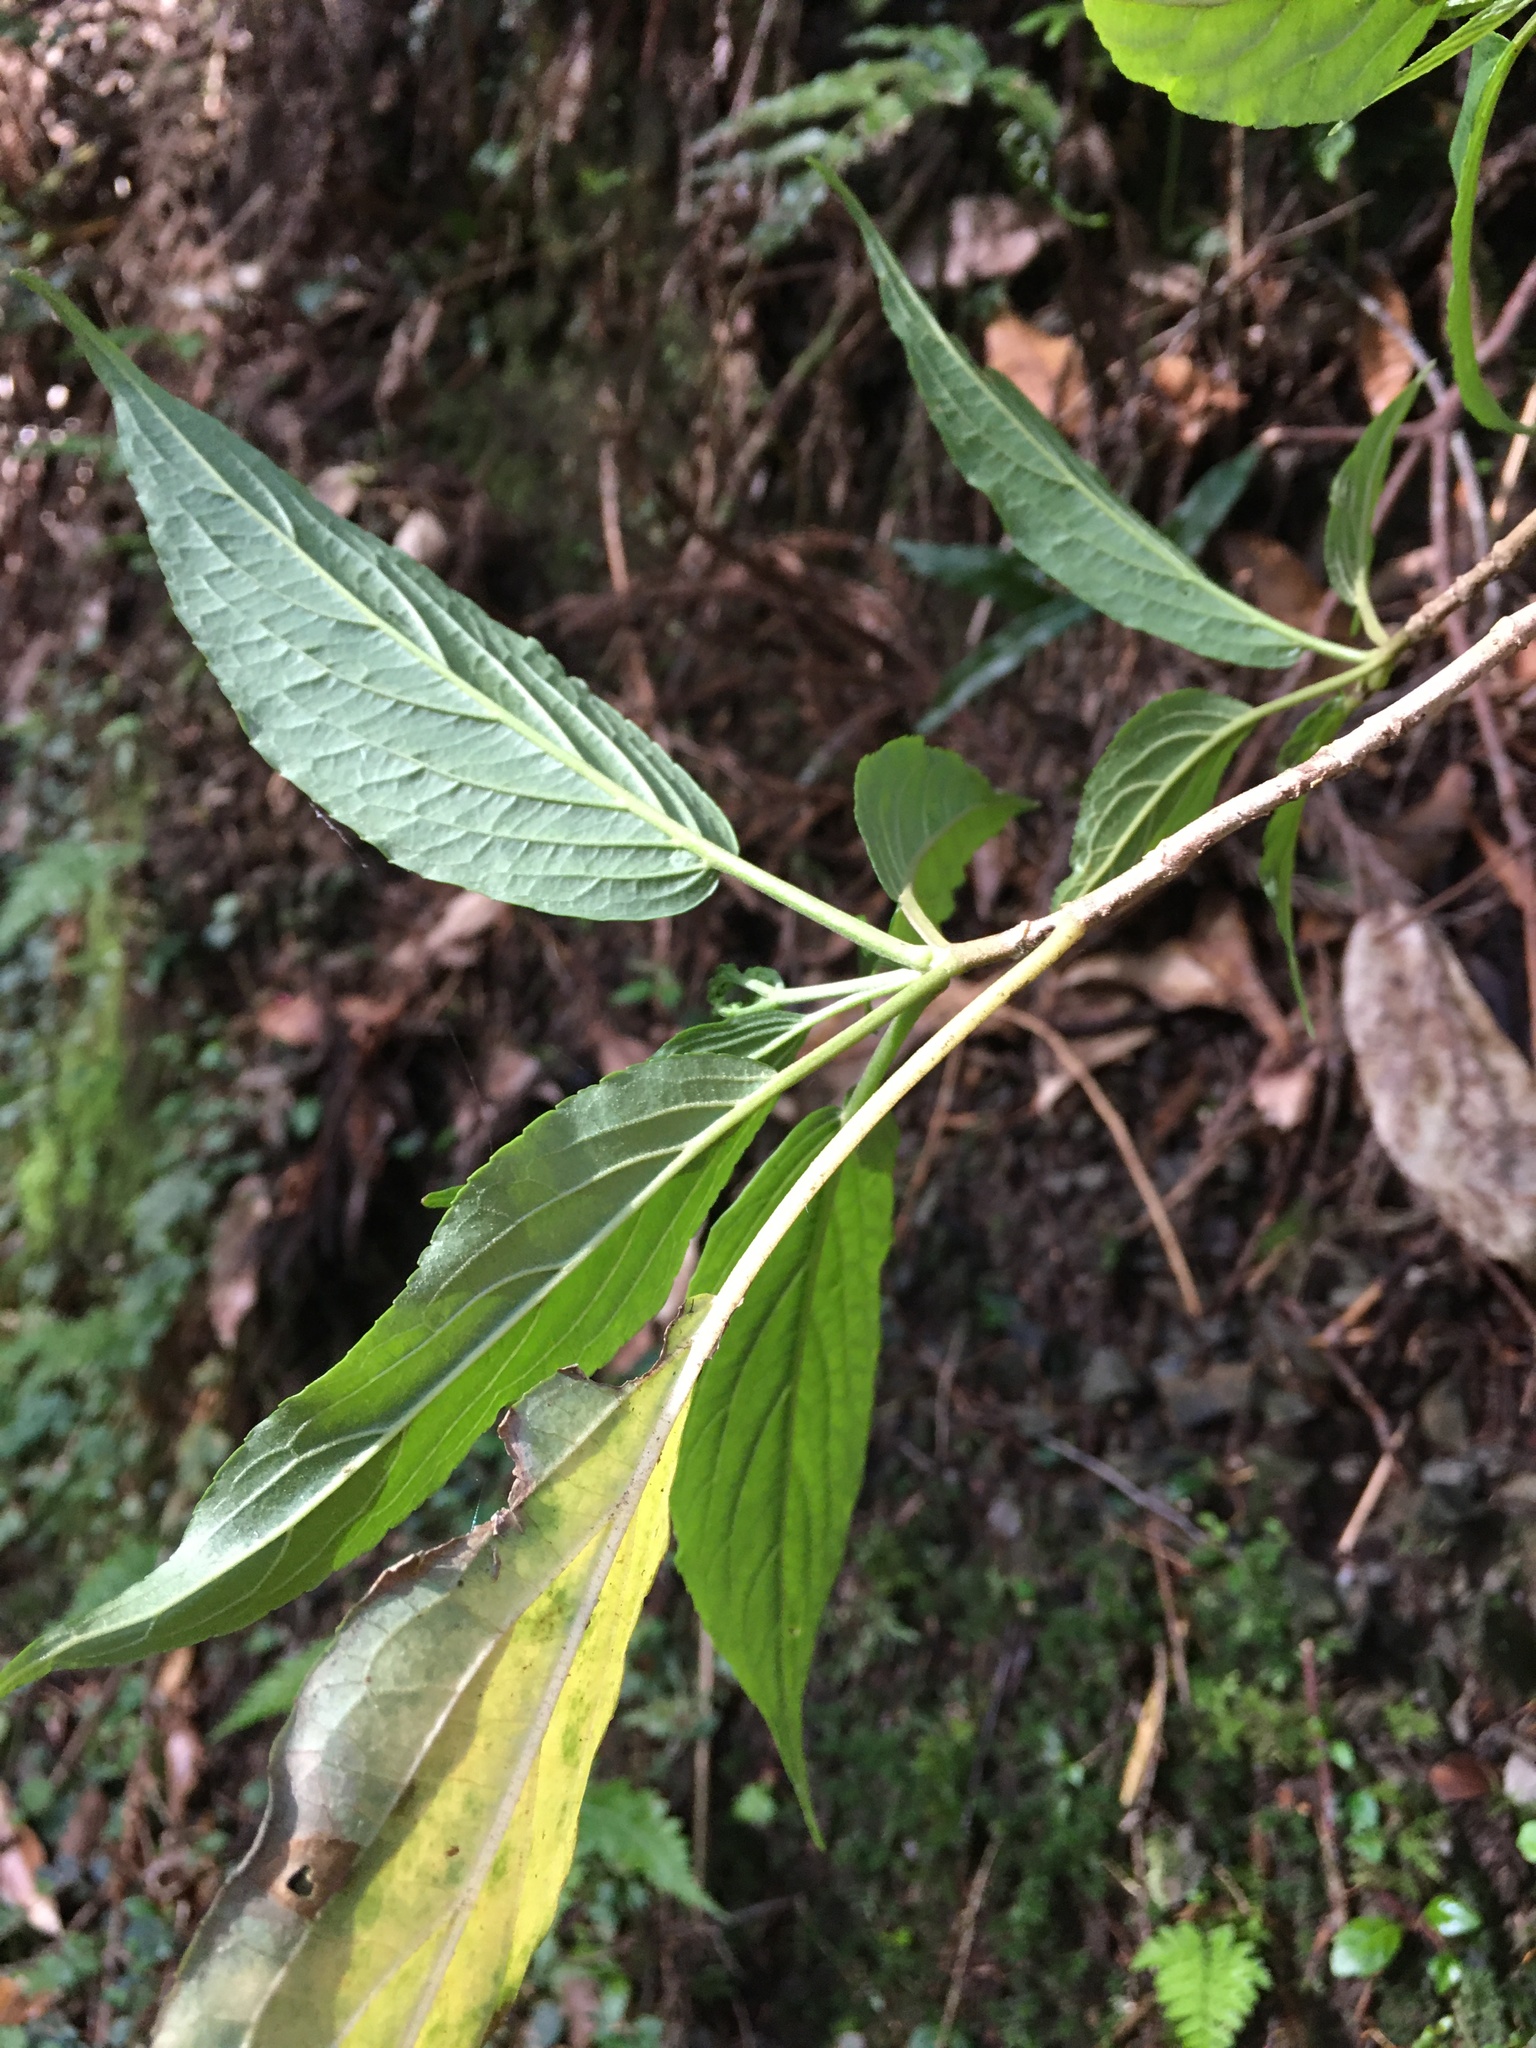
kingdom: Plantae
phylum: Tracheophyta
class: Magnoliopsida
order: Dipsacales
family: Viburnaceae
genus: Viburnum
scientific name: Viburnum urceolatum
